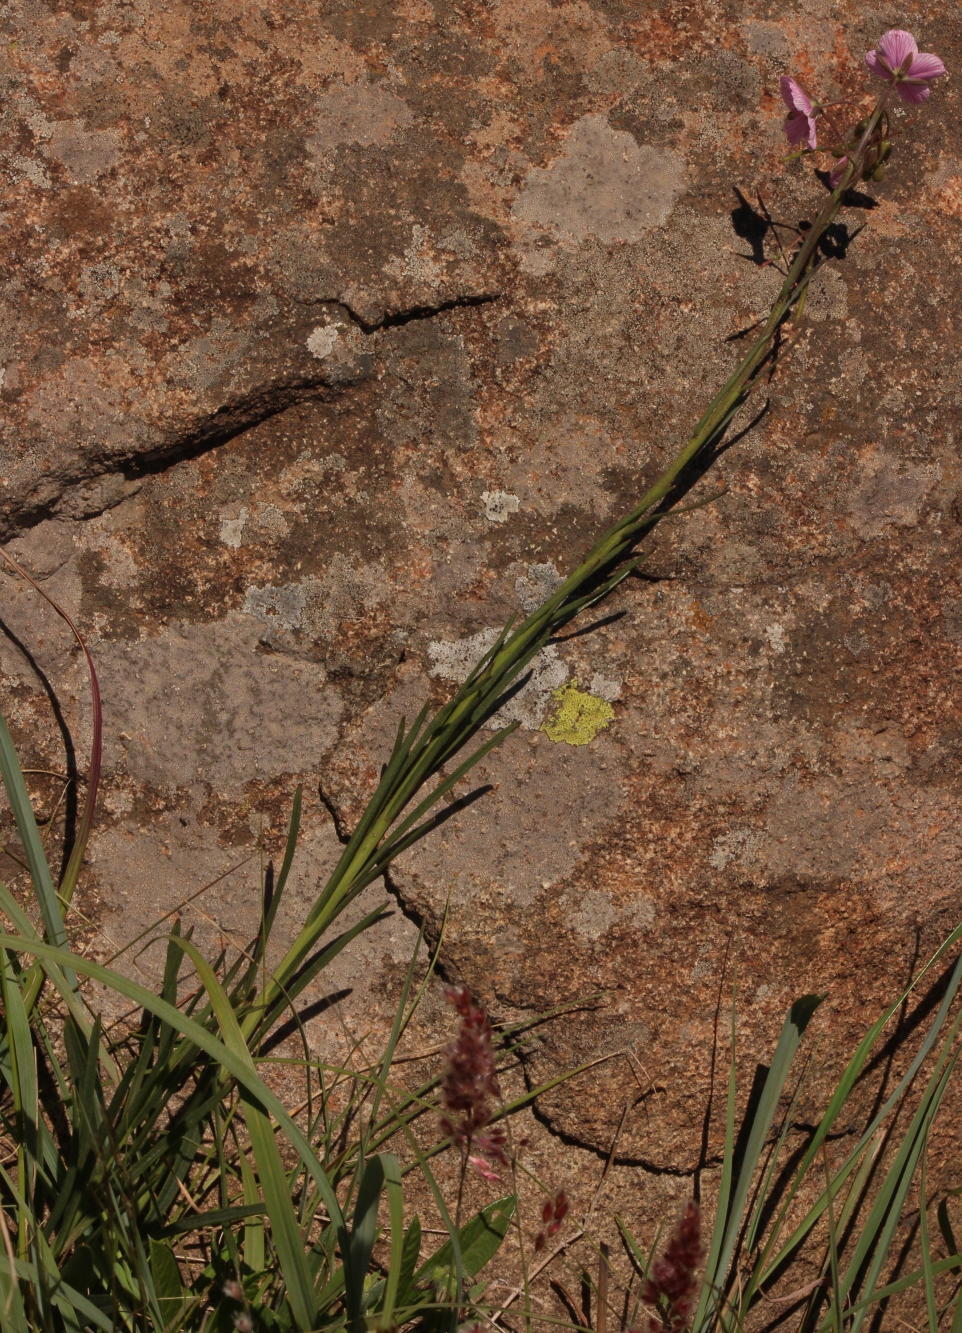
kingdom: Plantae
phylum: Tracheophyta
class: Magnoliopsida
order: Brassicales
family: Brassicaceae
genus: Heliophila
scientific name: Heliophila rigidiuscula
